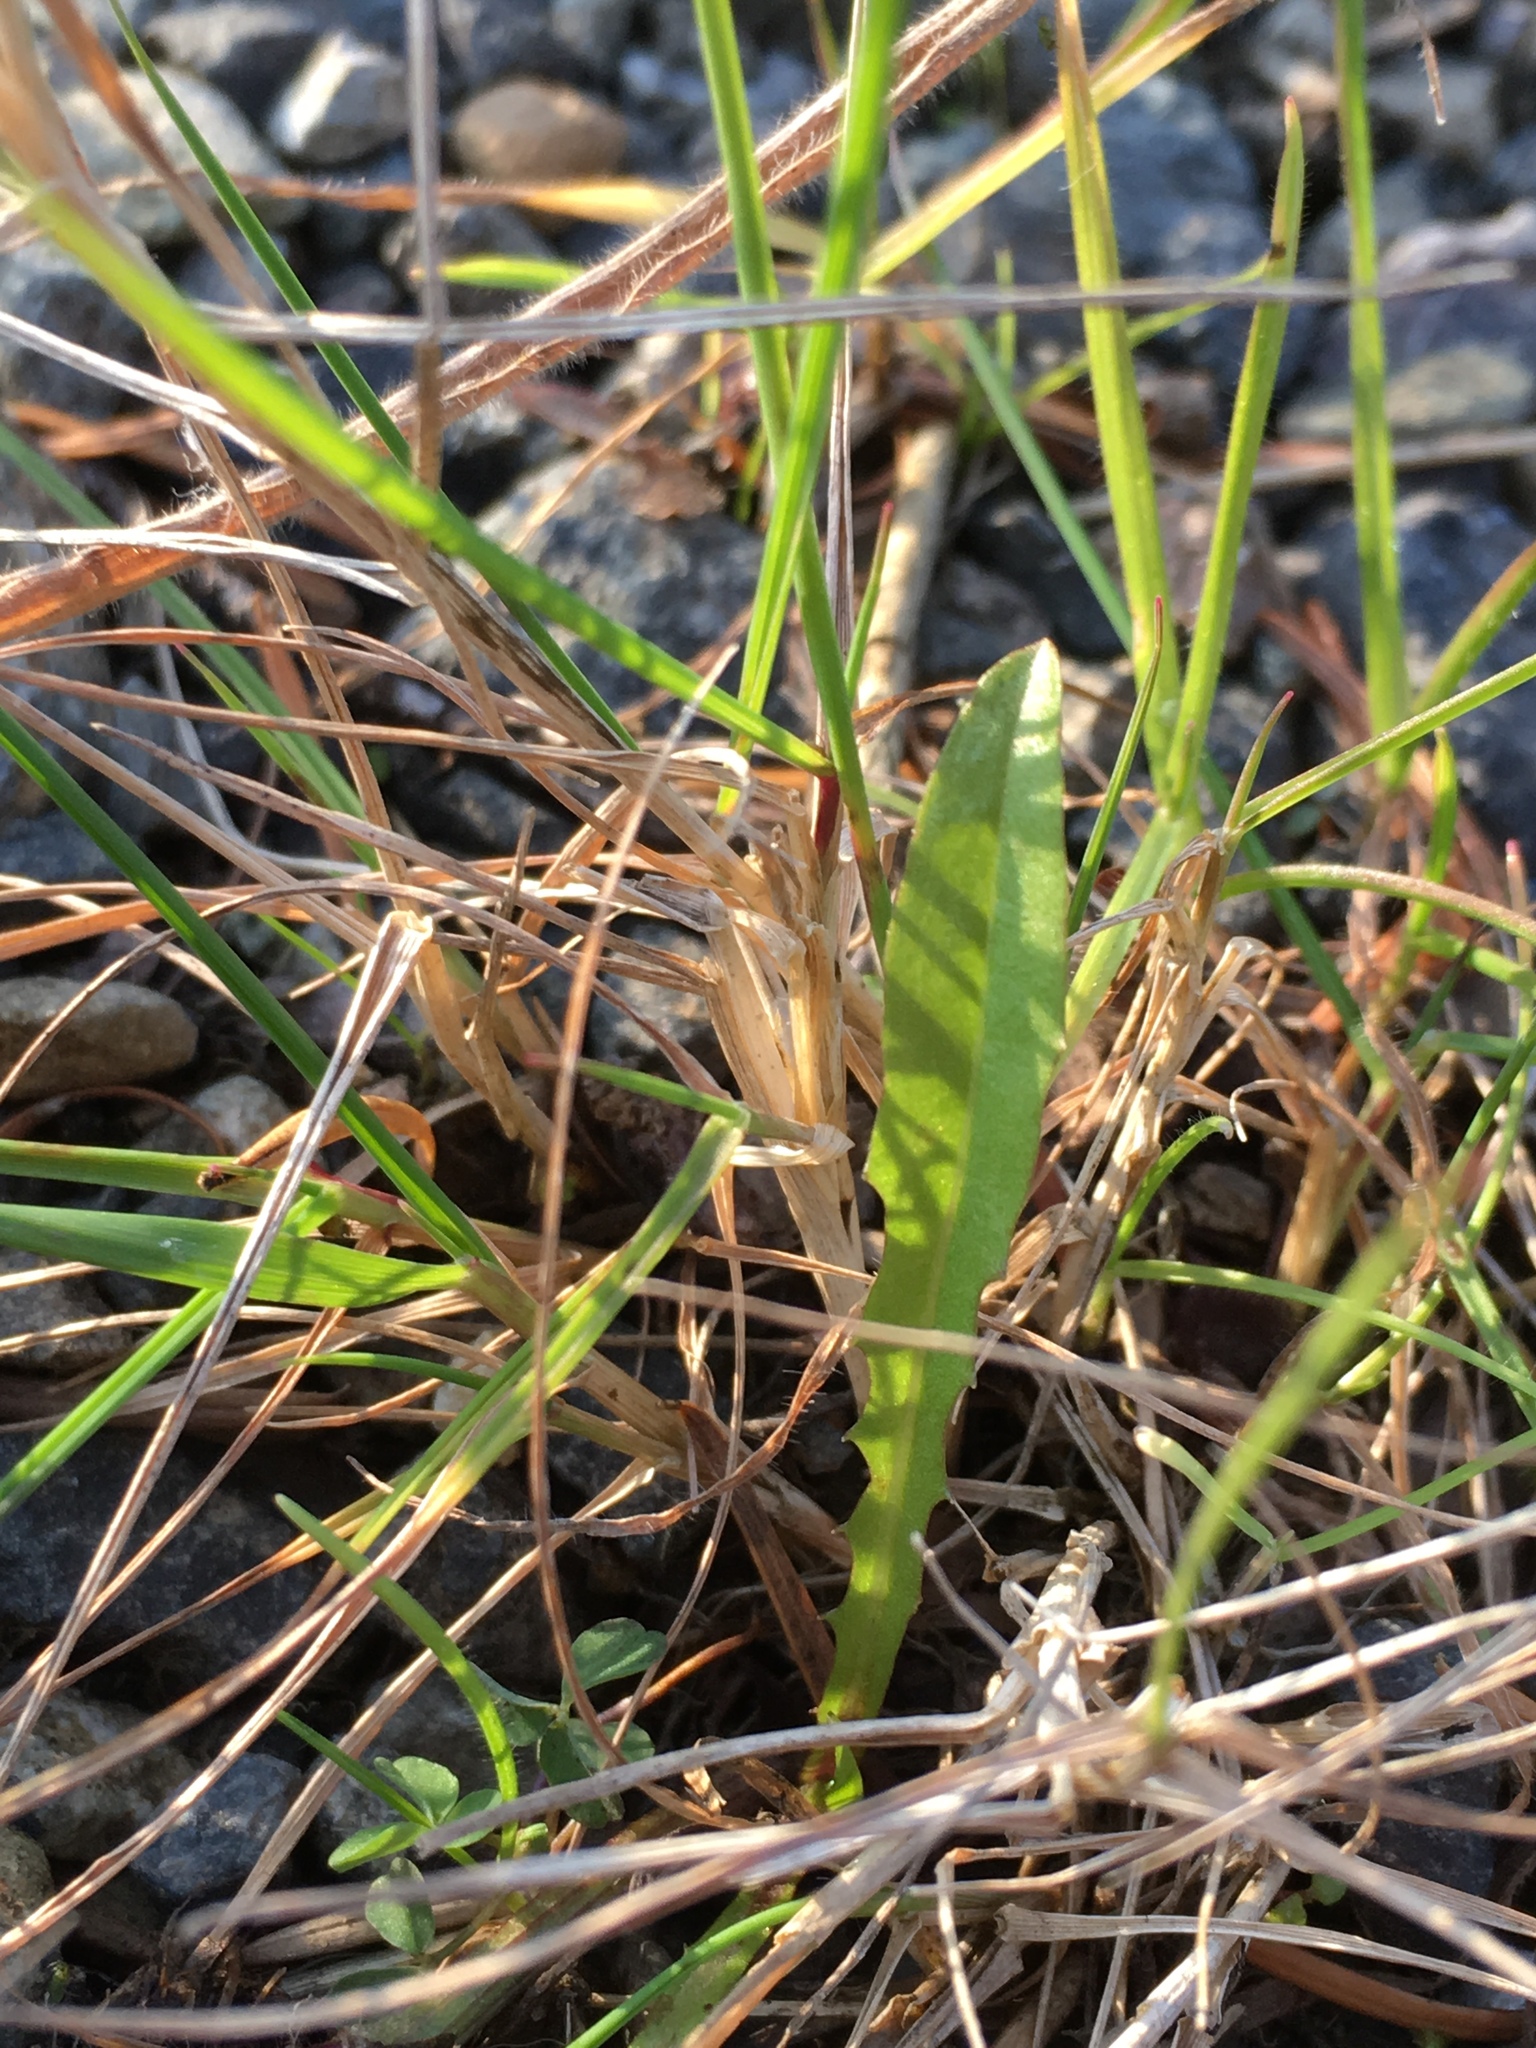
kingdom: Plantae
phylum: Tracheophyta
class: Magnoliopsida
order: Asterales
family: Asteraceae
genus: Crepis
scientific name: Crepis capillaris
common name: Smooth hawksbeard
